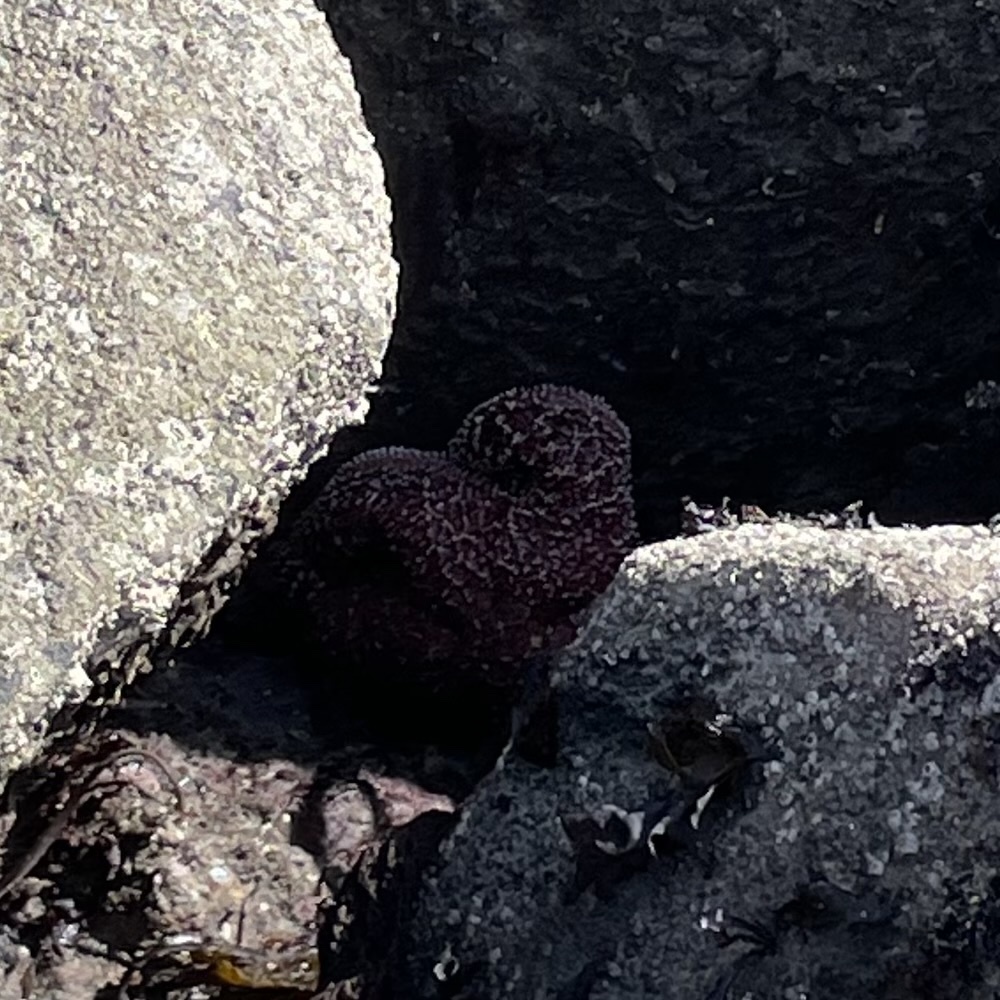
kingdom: Animalia
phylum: Echinodermata
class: Asteroidea
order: Forcipulatida
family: Asteriidae
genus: Pisaster
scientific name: Pisaster ochraceus
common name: Ochre stars
